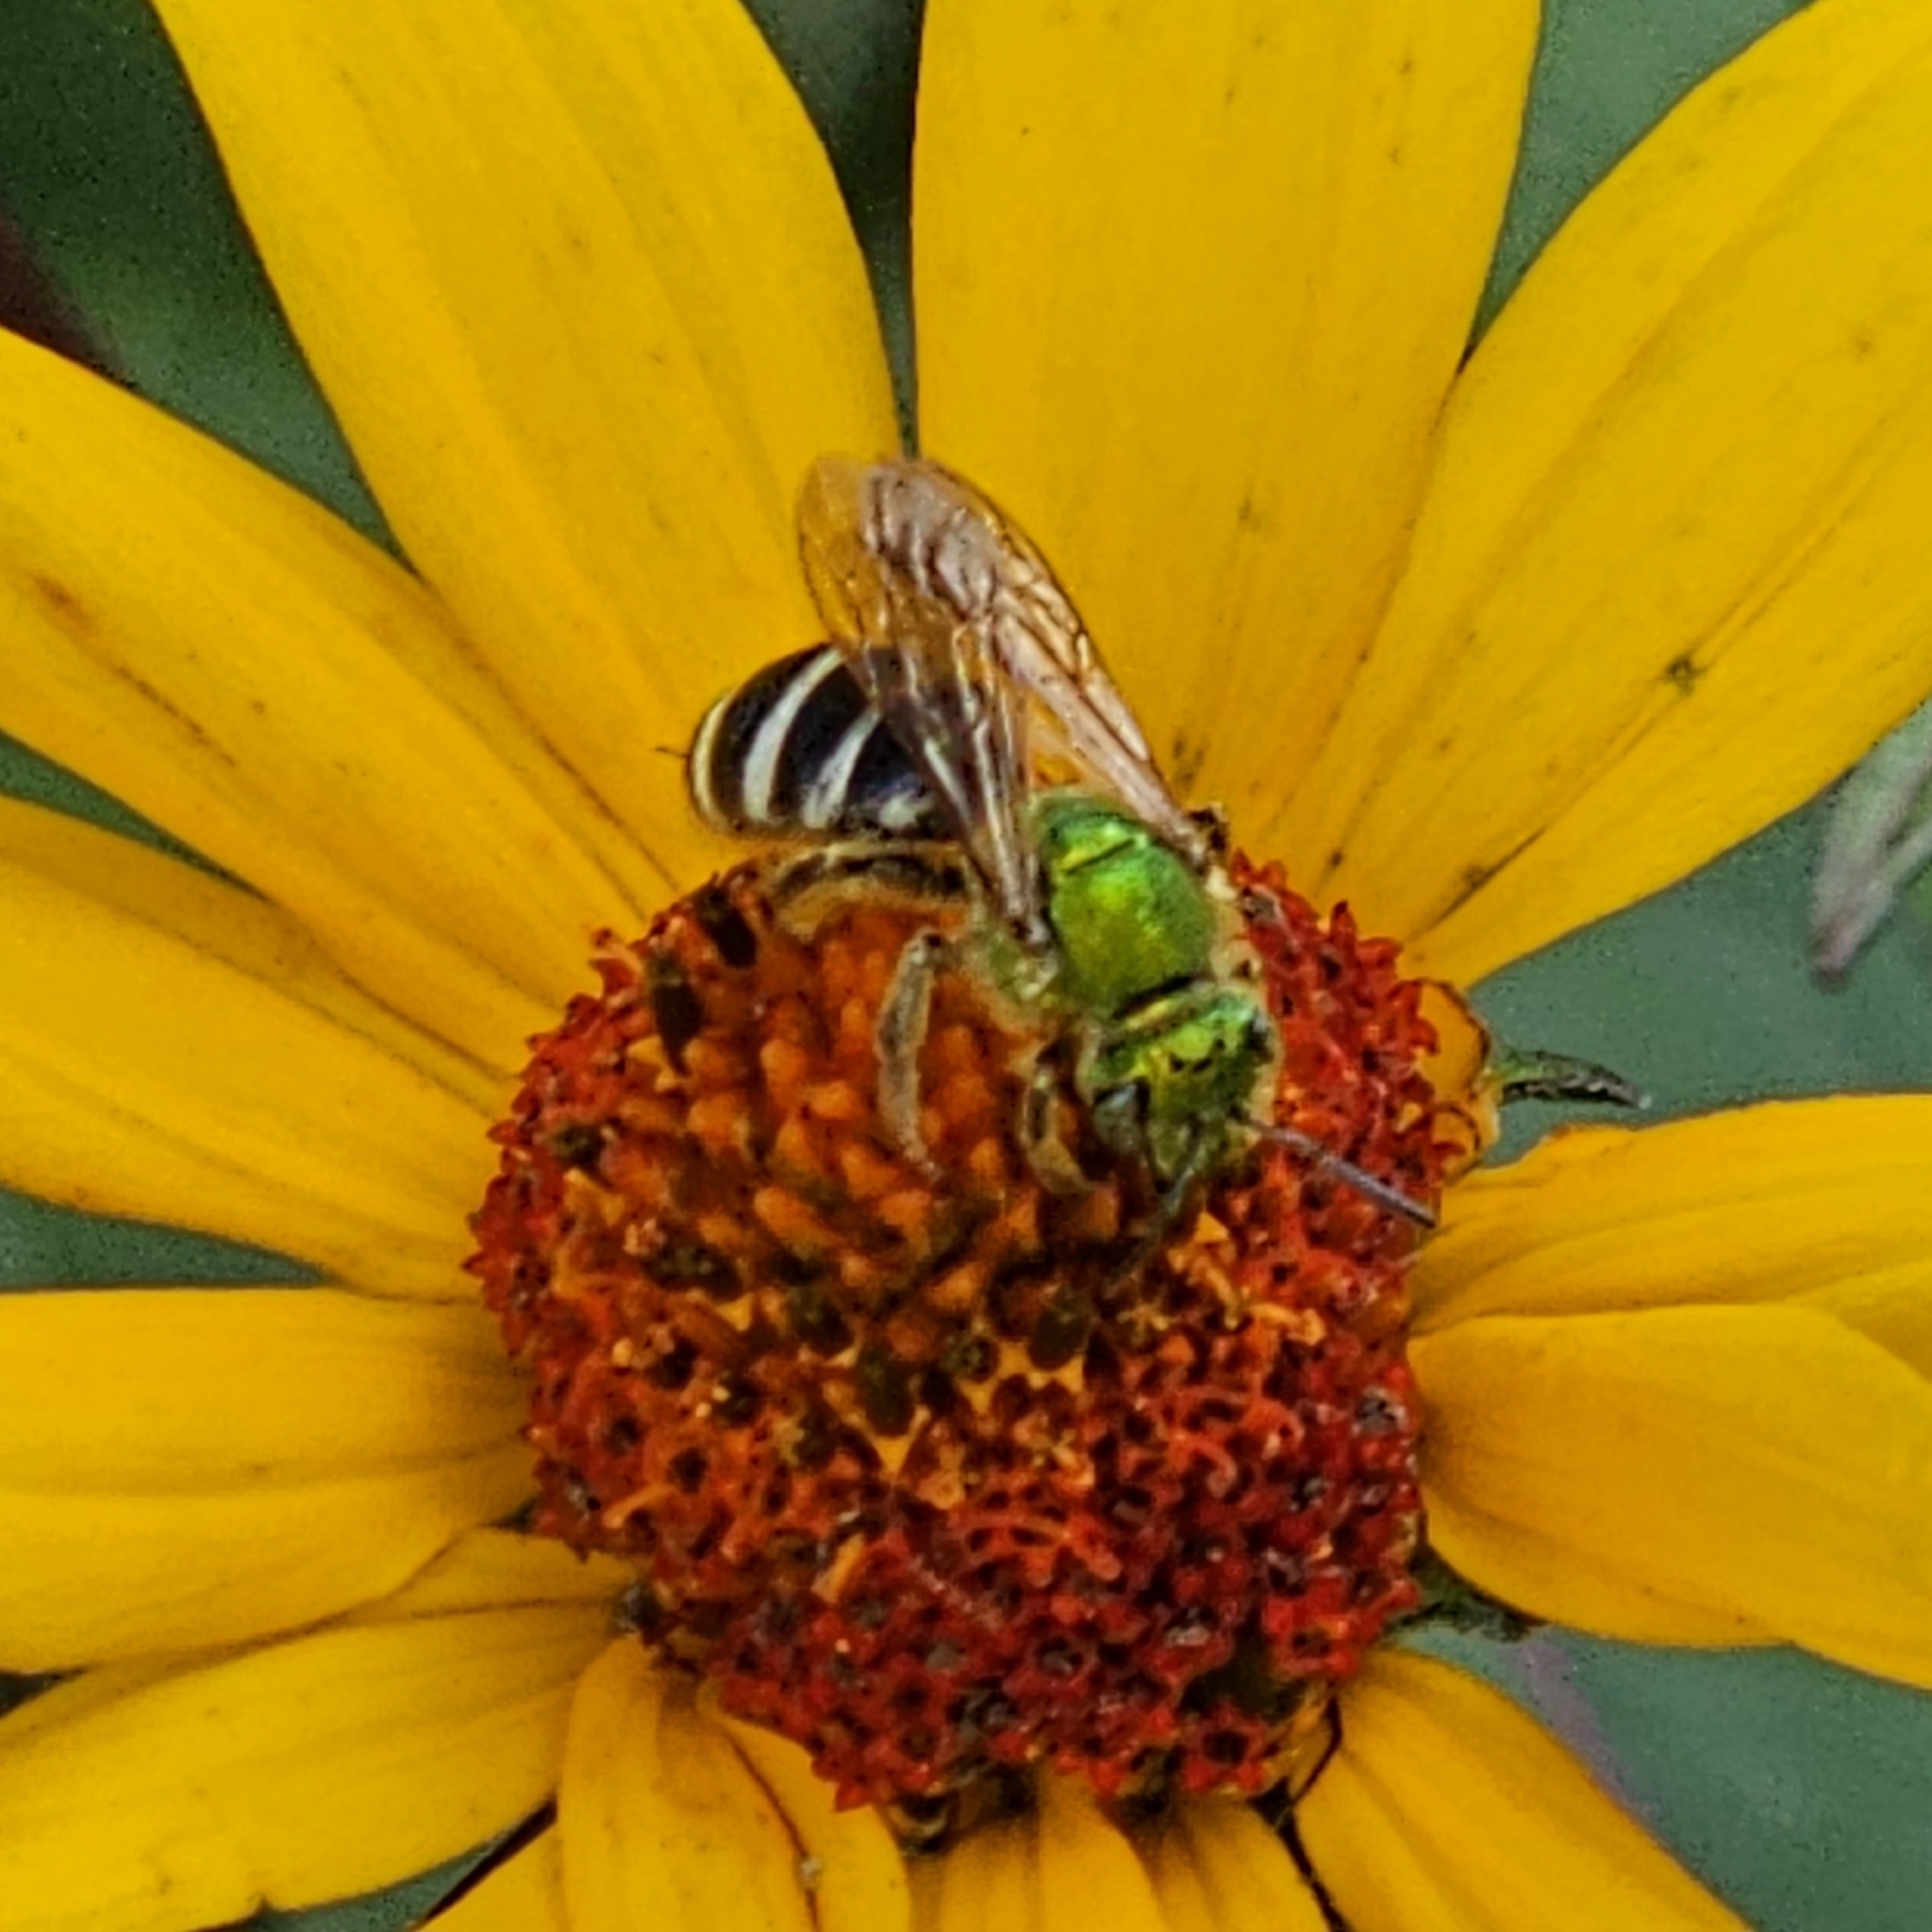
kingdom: Animalia
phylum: Arthropoda
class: Insecta
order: Hymenoptera
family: Halictidae
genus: Agapostemon
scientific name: Agapostemon virescens
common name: Bicolored striped sweat bee
